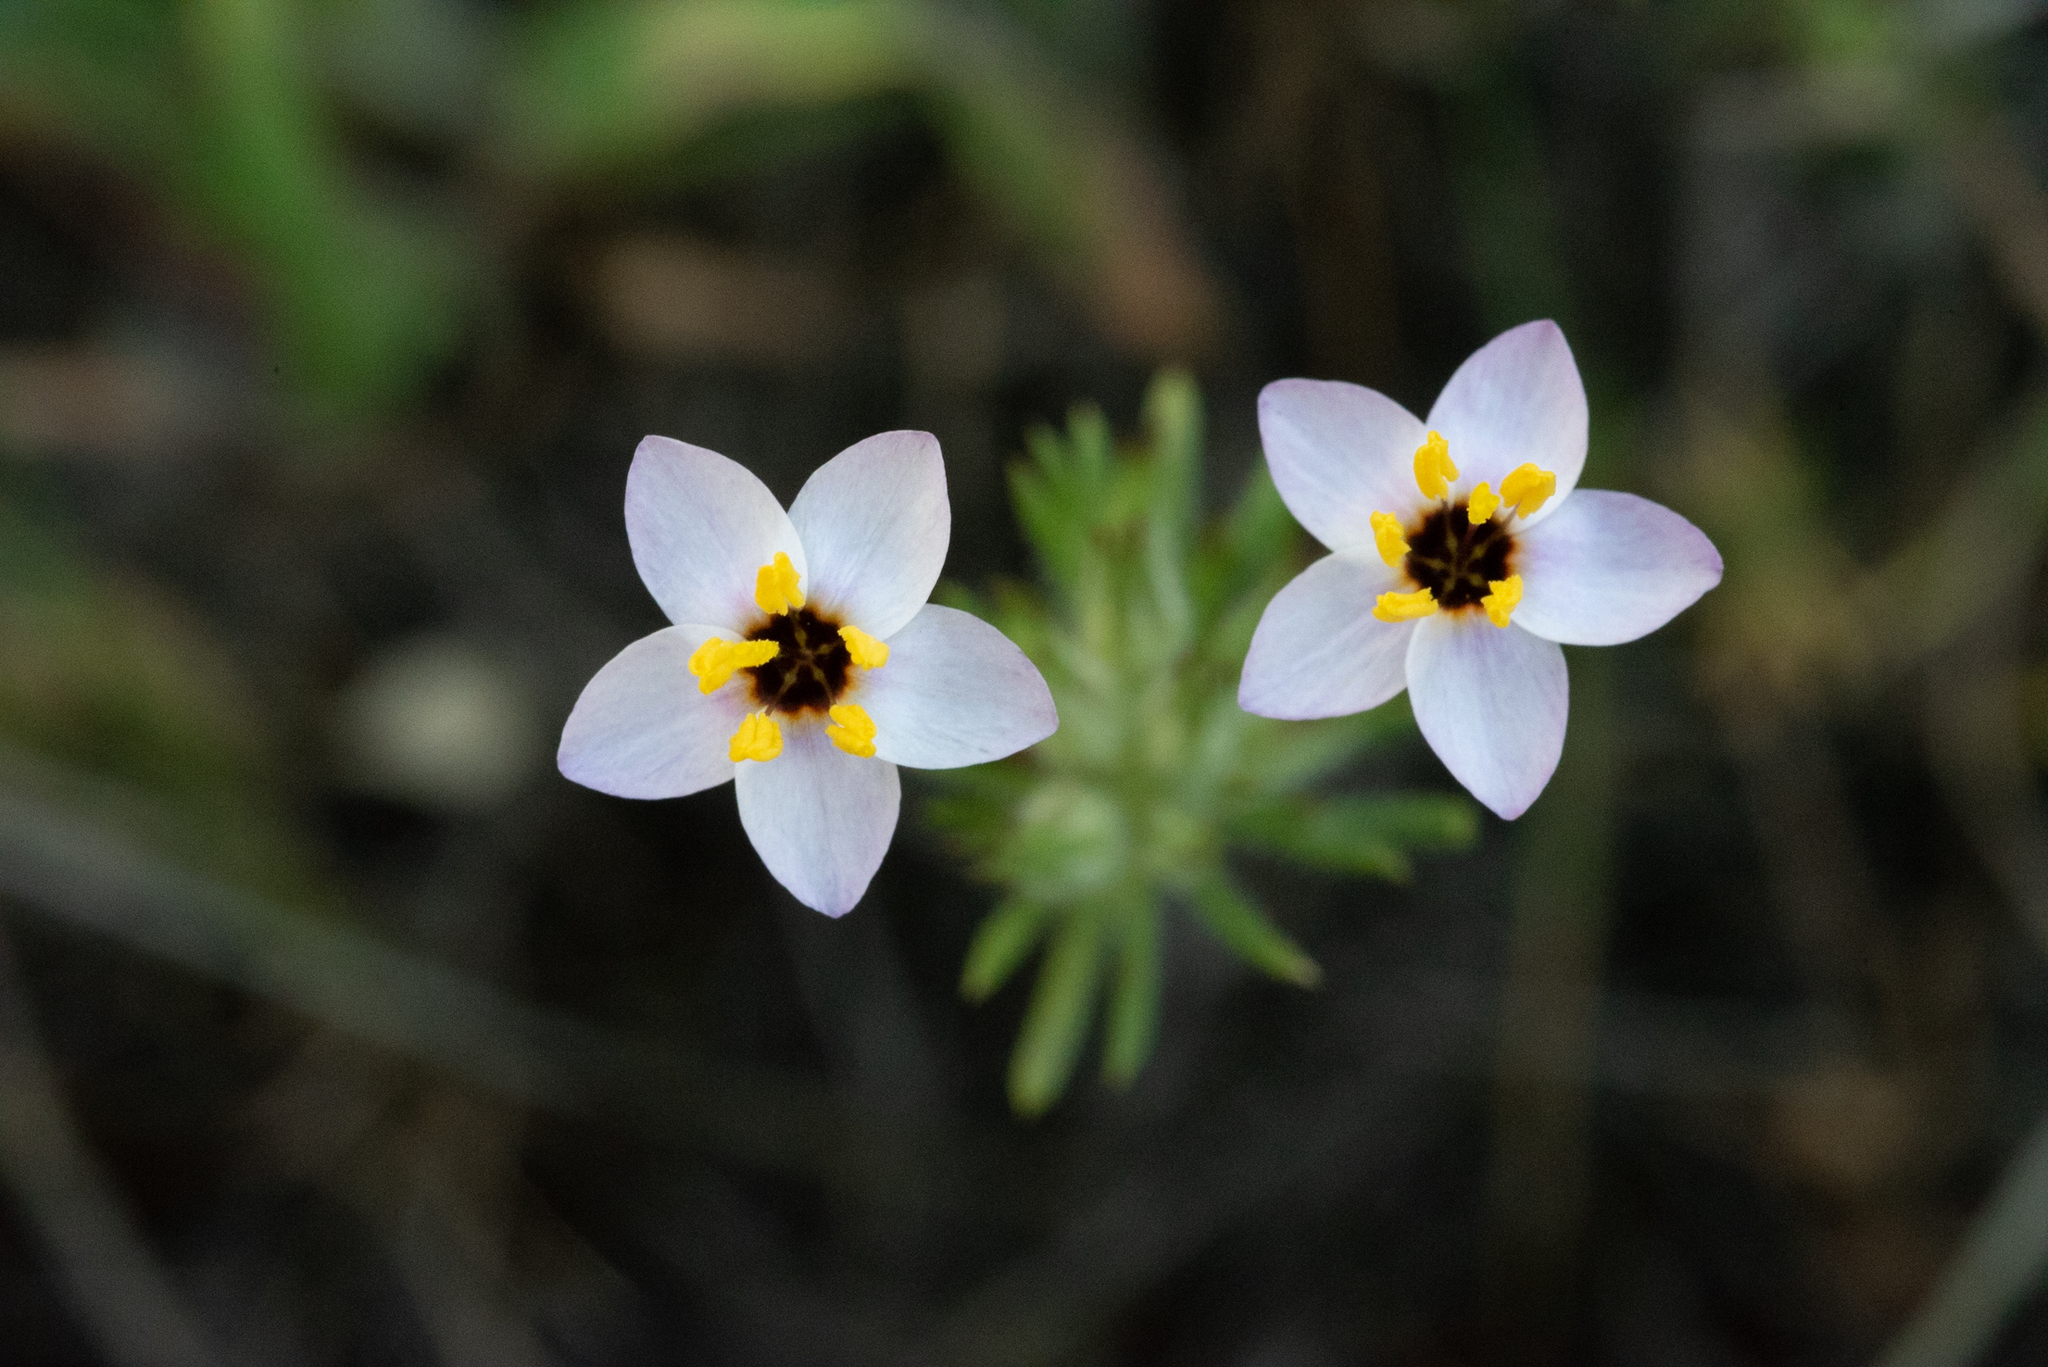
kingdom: Plantae
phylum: Tracheophyta
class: Magnoliopsida
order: Ericales
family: Polemoniaceae
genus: Leptosiphon
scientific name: Leptosiphon parviflorus
